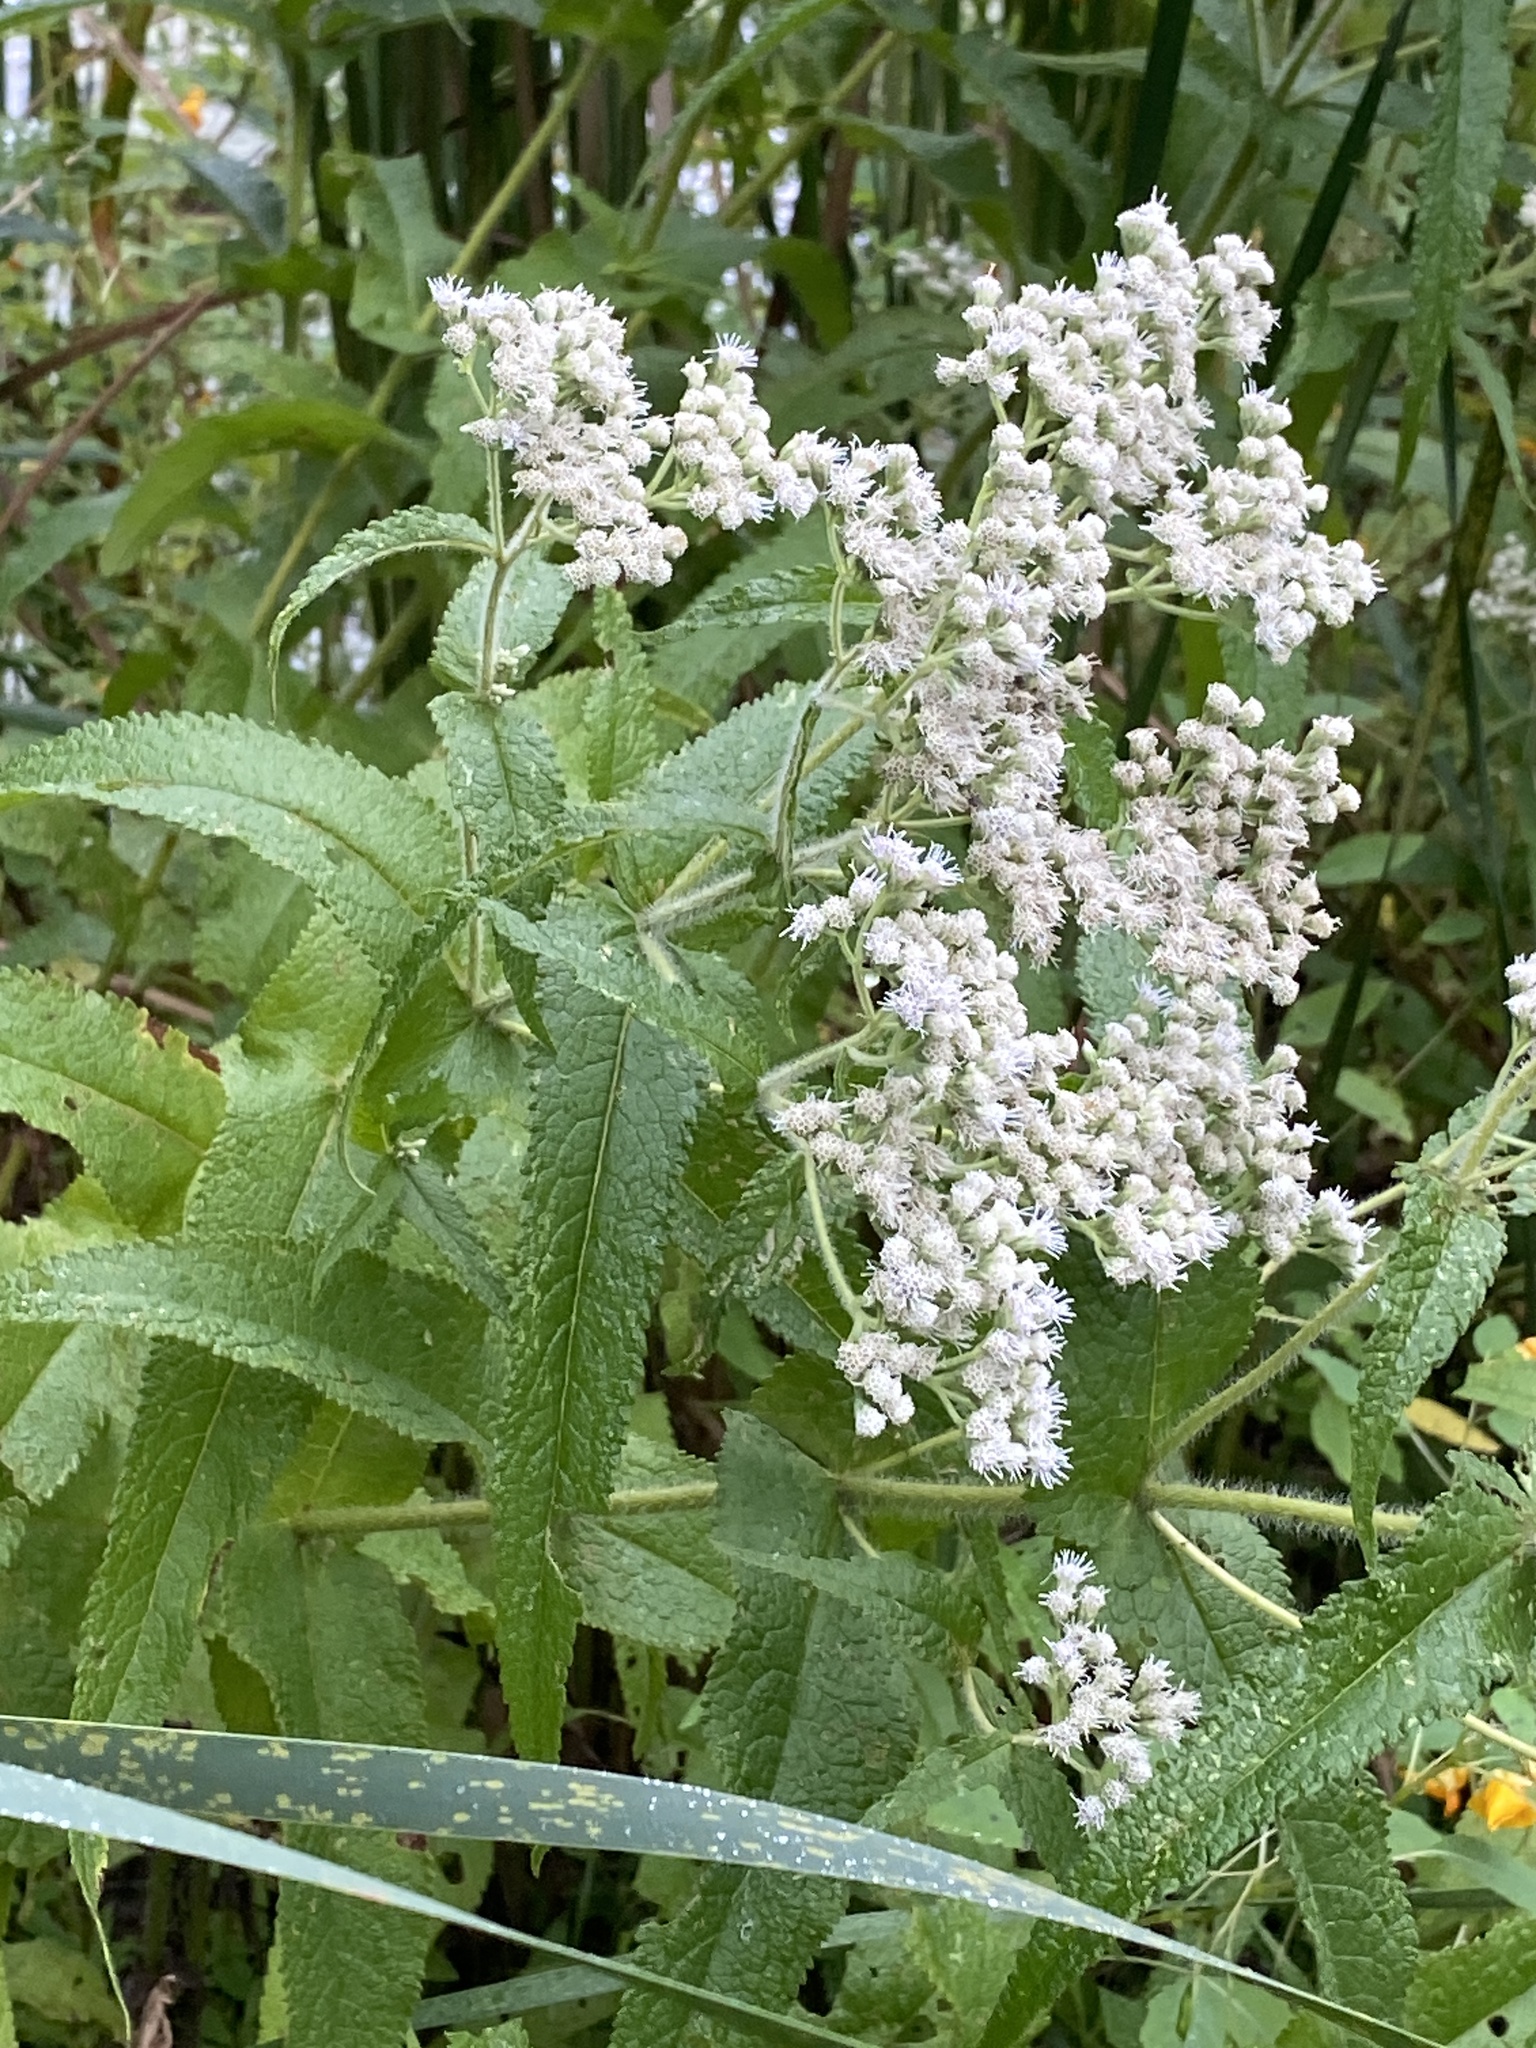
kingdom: Plantae
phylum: Tracheophyta
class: Magnoliopsida
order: Asterales
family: Asteraceae
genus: Eupatorium
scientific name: Eupatorium perfoliatum
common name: Boneset
